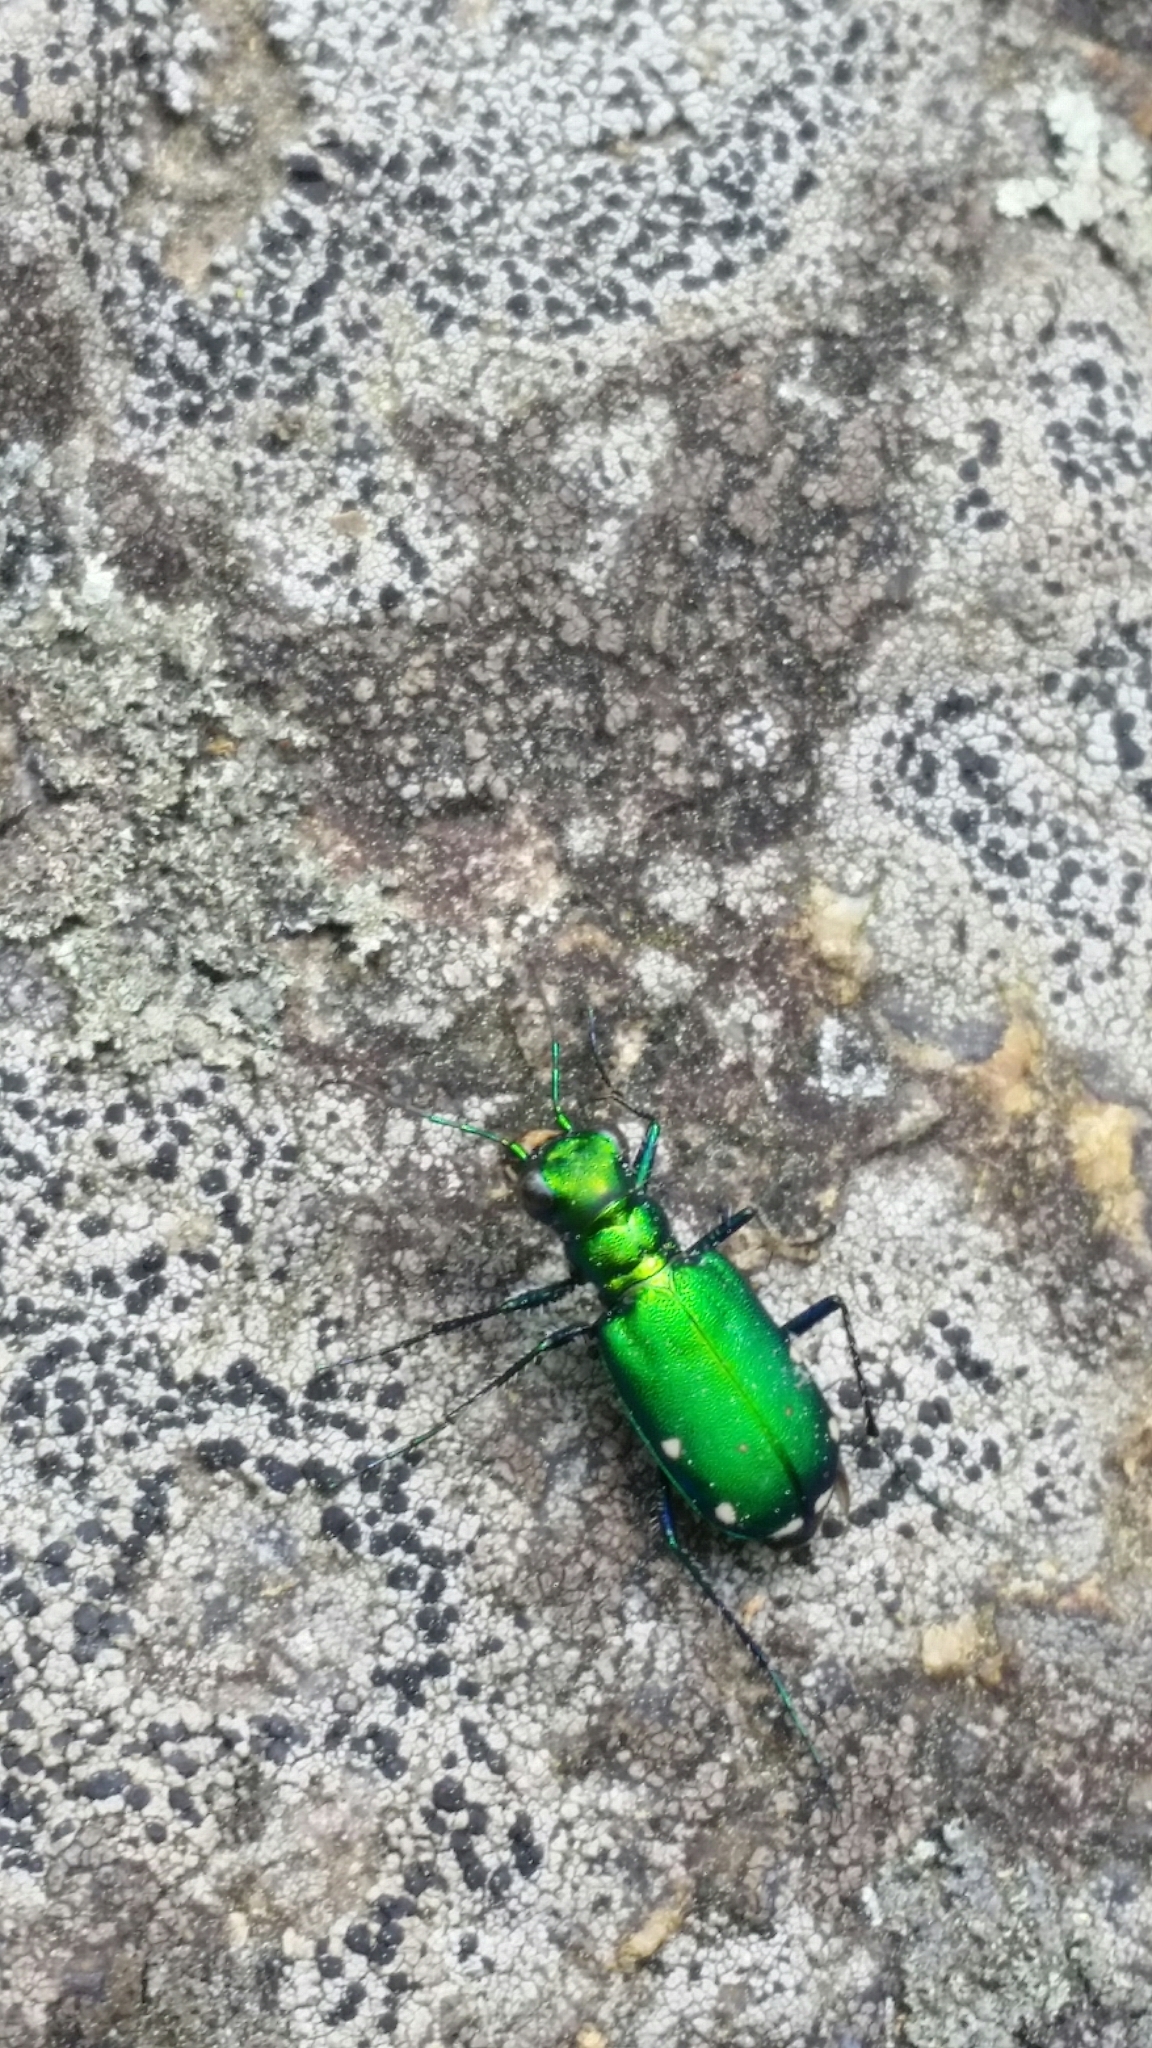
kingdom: Animalia
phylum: Arthropoda
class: Insecta
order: Coleoptera
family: Carabidae
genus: Cicindela
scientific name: Cicindela sexguttata
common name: Six-spotted tiger beetle
